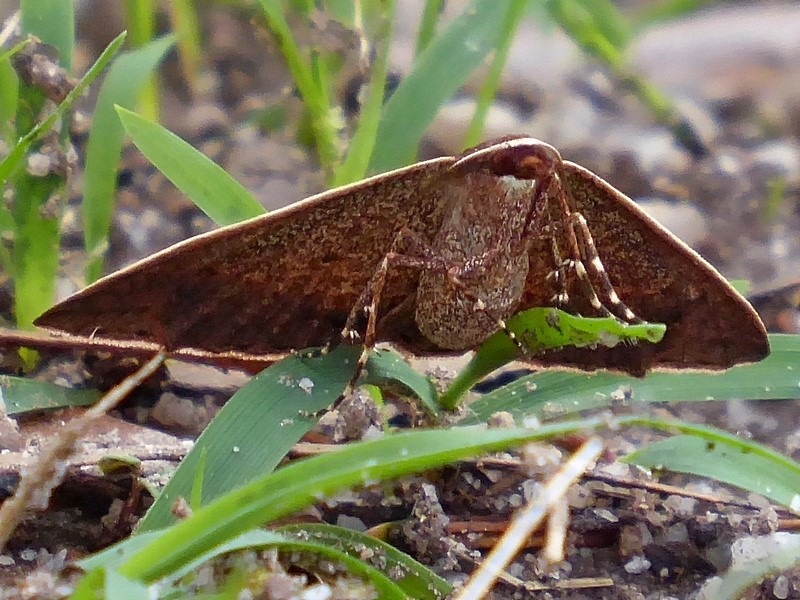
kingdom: Animalia
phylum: Arthropoda
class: Insecta
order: Lepidoptera
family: Geometridae
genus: Epidesmia
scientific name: Epidesmia chilonaria
